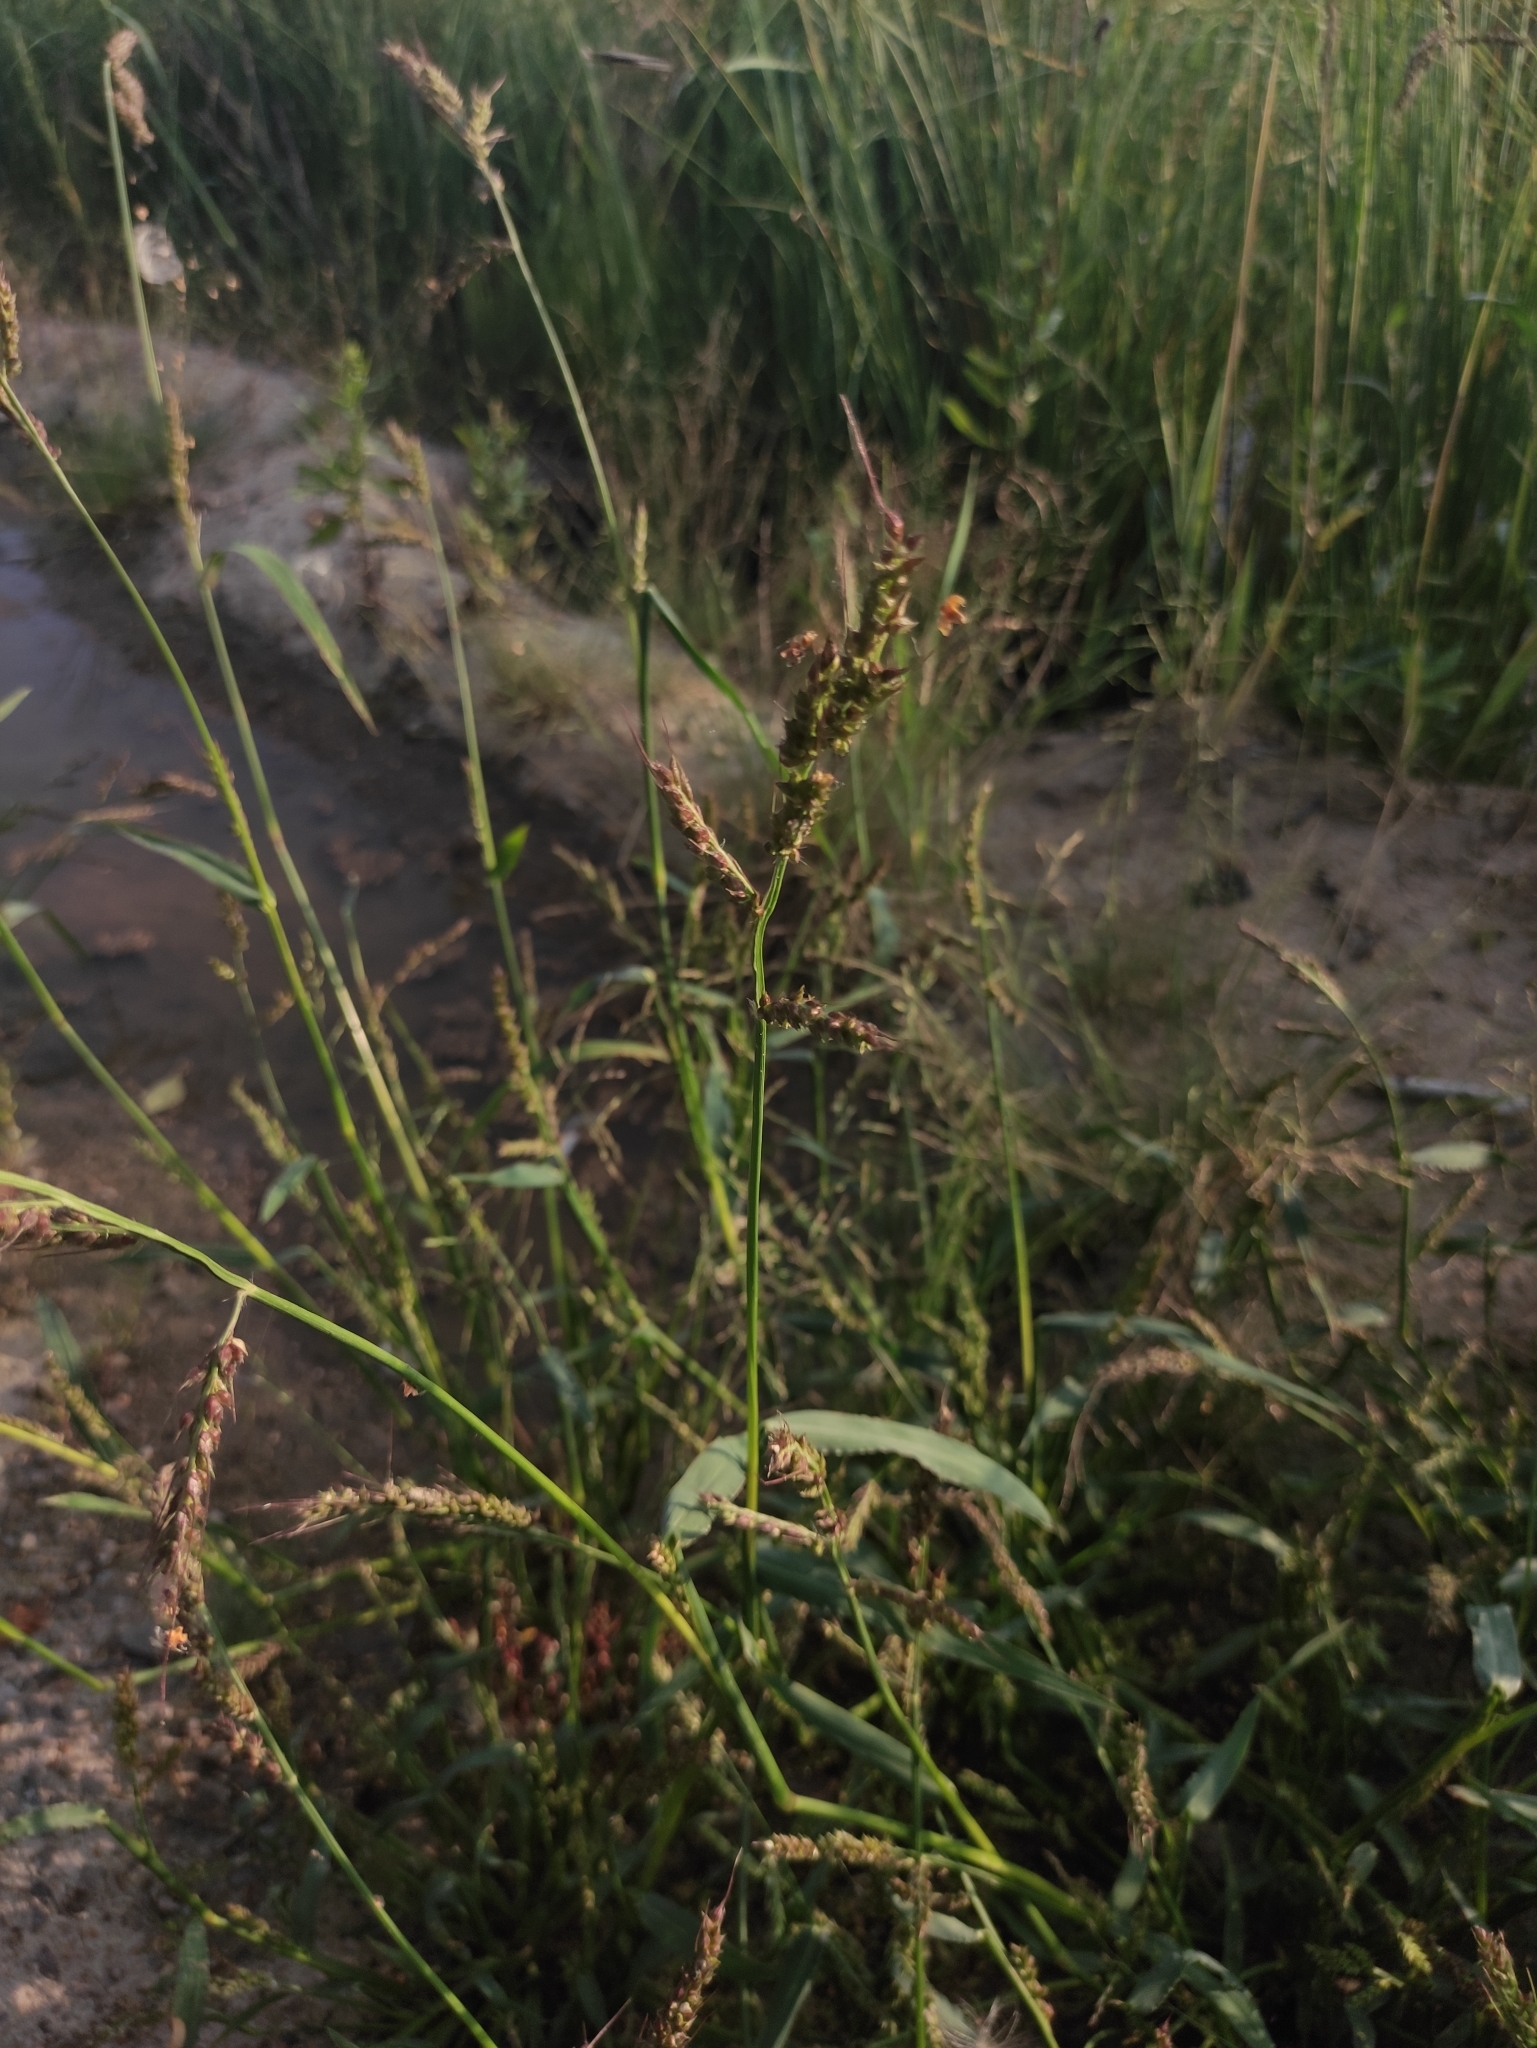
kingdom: Plantae
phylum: Tracheophyta
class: Liliopsida
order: Poales
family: Poaceae
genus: Echinochloa
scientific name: Echinochloa crus-galli
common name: Cockspur
